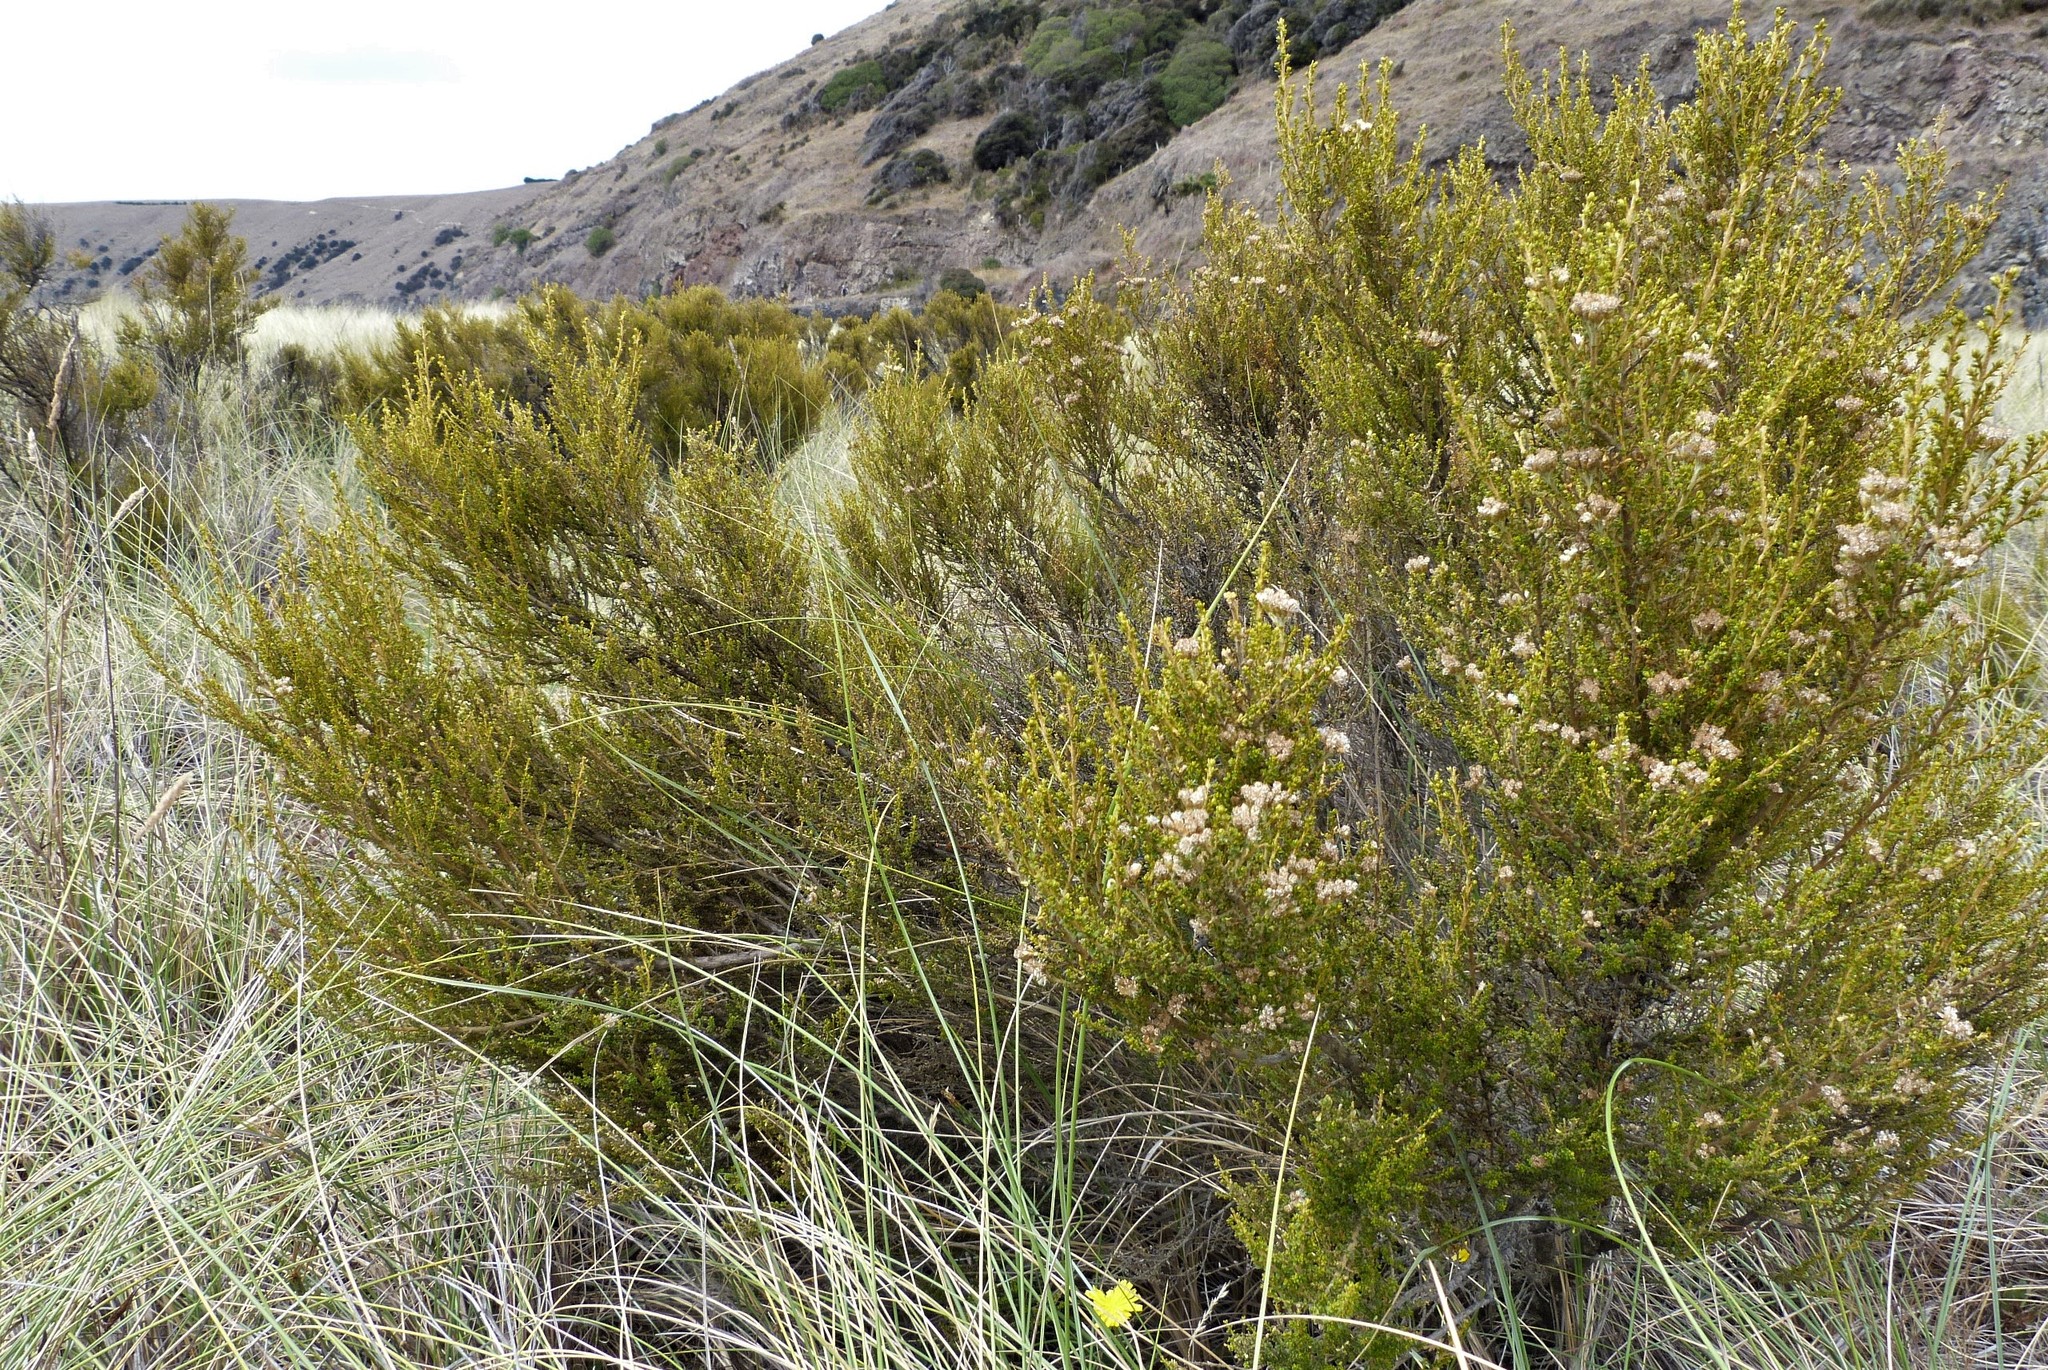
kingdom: Plantae
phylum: Tracheophyta
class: Magnoliopsida
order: Asterales
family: Asteraceae
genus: Ozothamnus
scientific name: Ozothamnus leptophyllus
